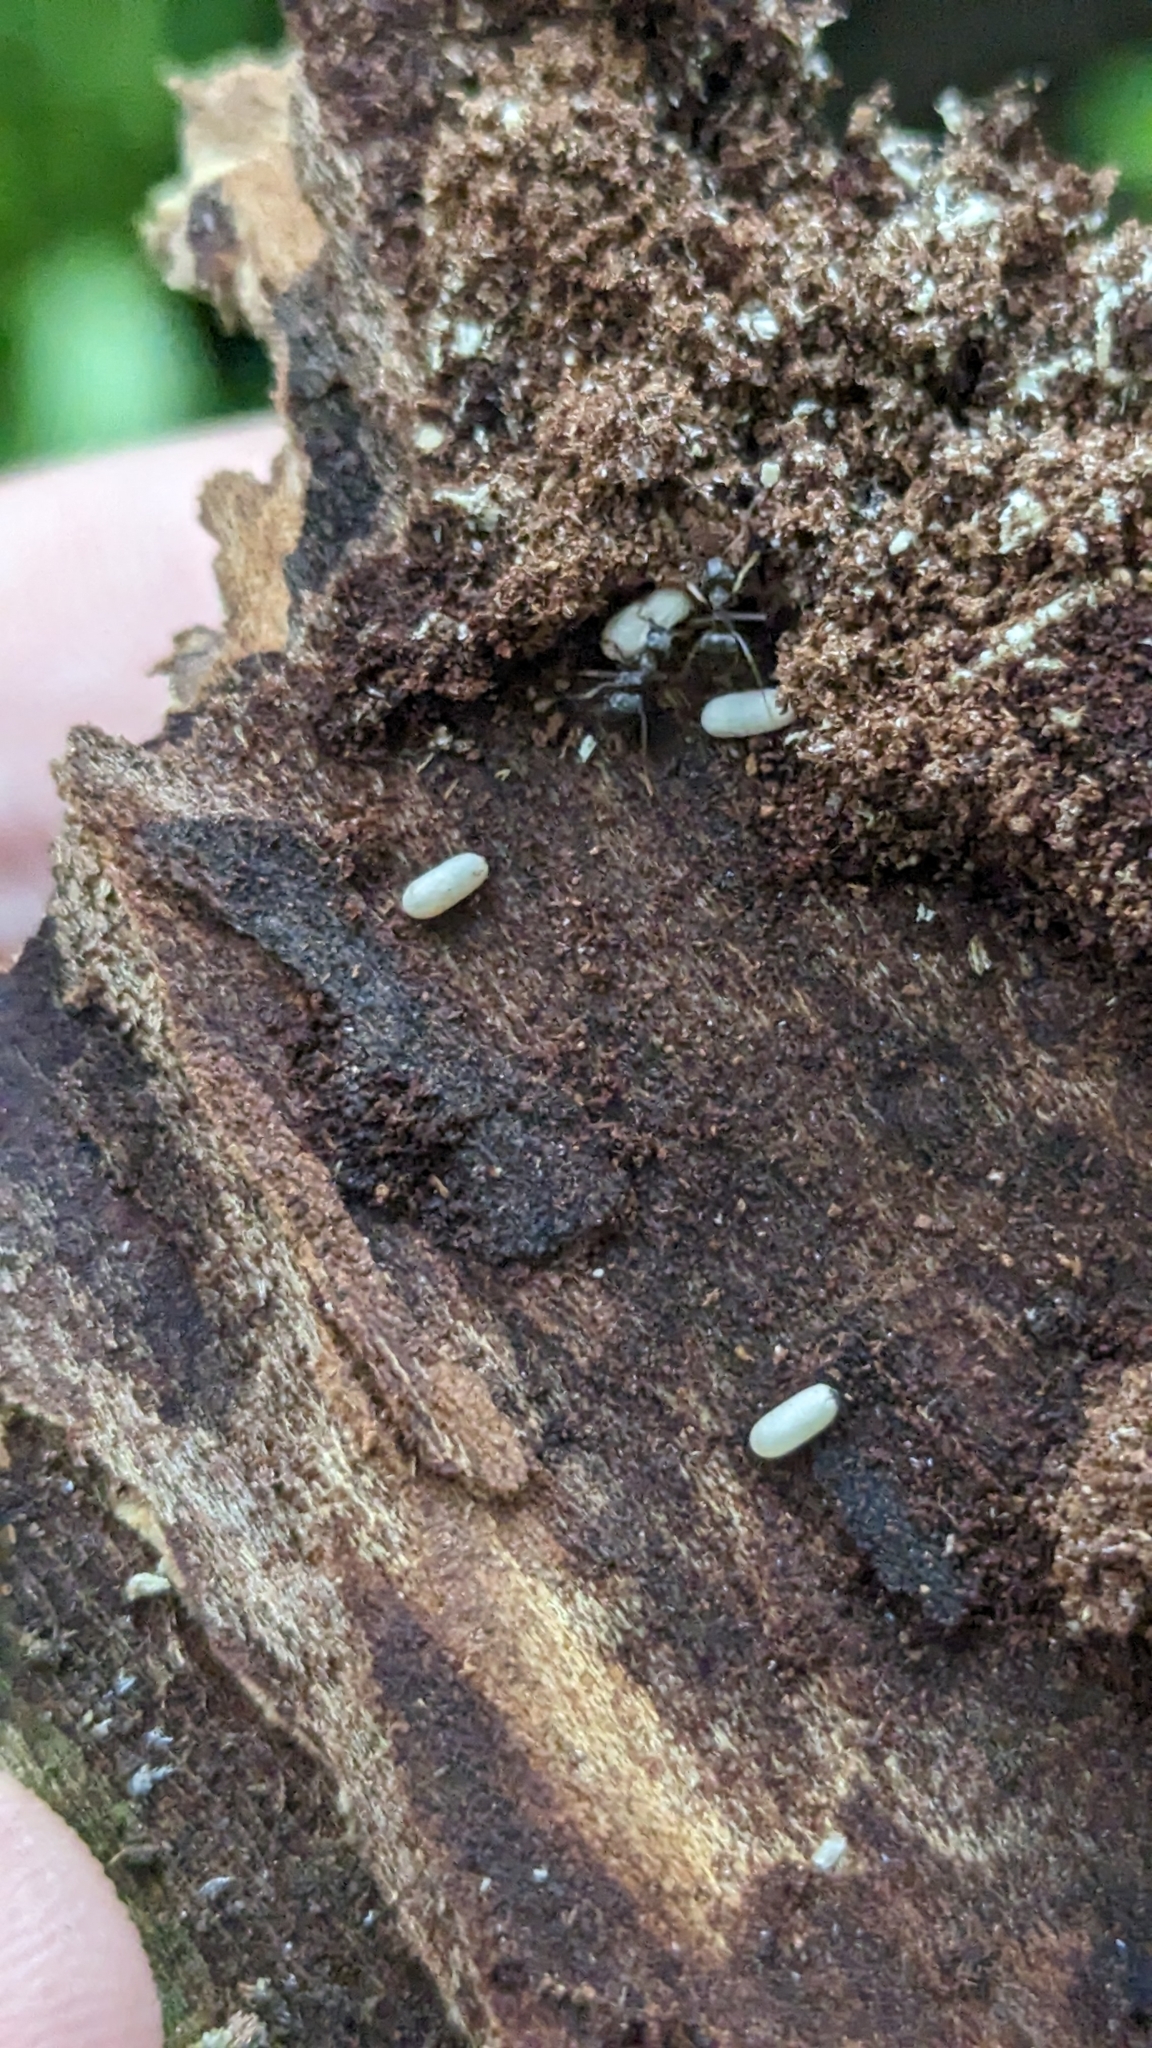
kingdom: Animalia
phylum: Arthropoda
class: Insecta
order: Hymenoptera
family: Formicidae
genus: Lasius
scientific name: Lasius americanus
